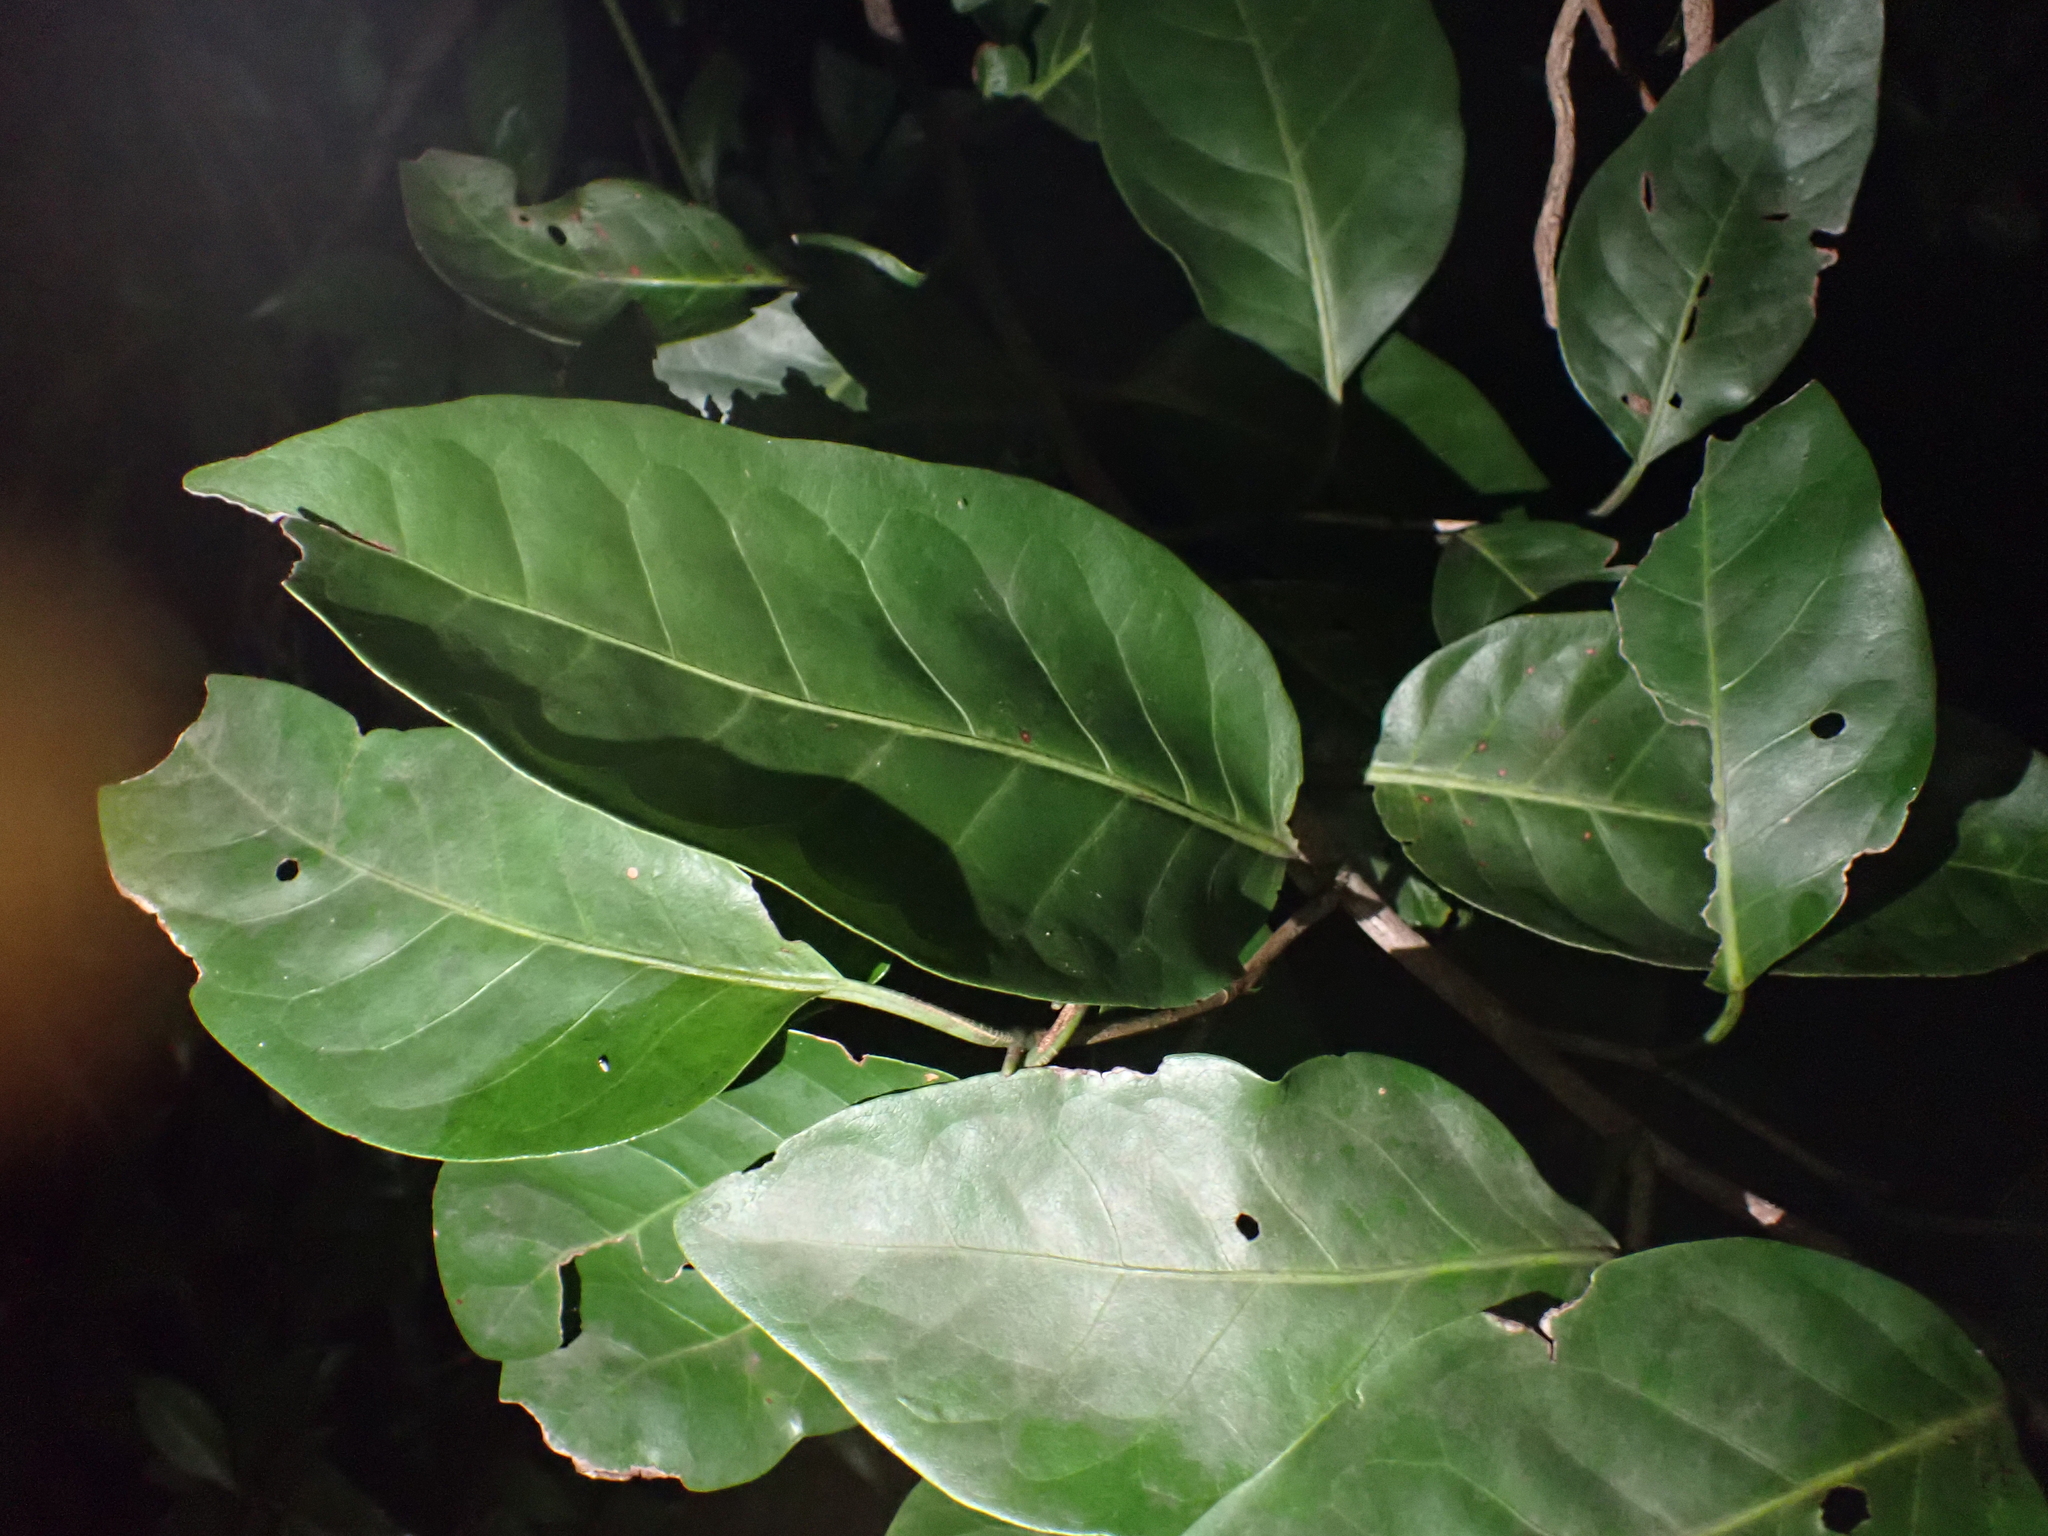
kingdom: Plantae
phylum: Tracheophyta
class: Magnoliopsida
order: Caryophyllales
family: Polygonaceae
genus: Coccoloba
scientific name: Coccoloba diversifolia
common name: Pigeon-plum
